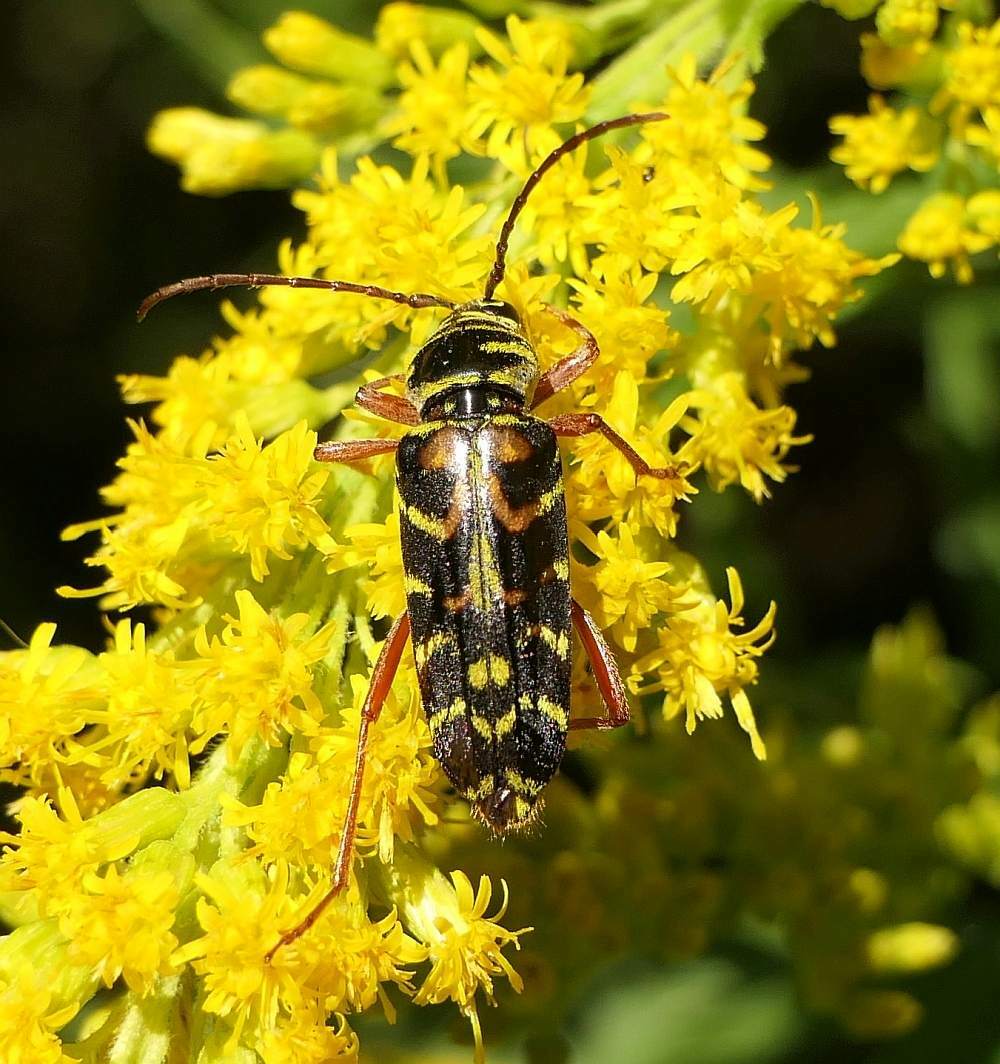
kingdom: Animalia
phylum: Arthropoda
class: Insecta
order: Coleoptera
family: Cerambycidae
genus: Megacyllene
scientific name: Megacyllene robiniae
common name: Locust borer
